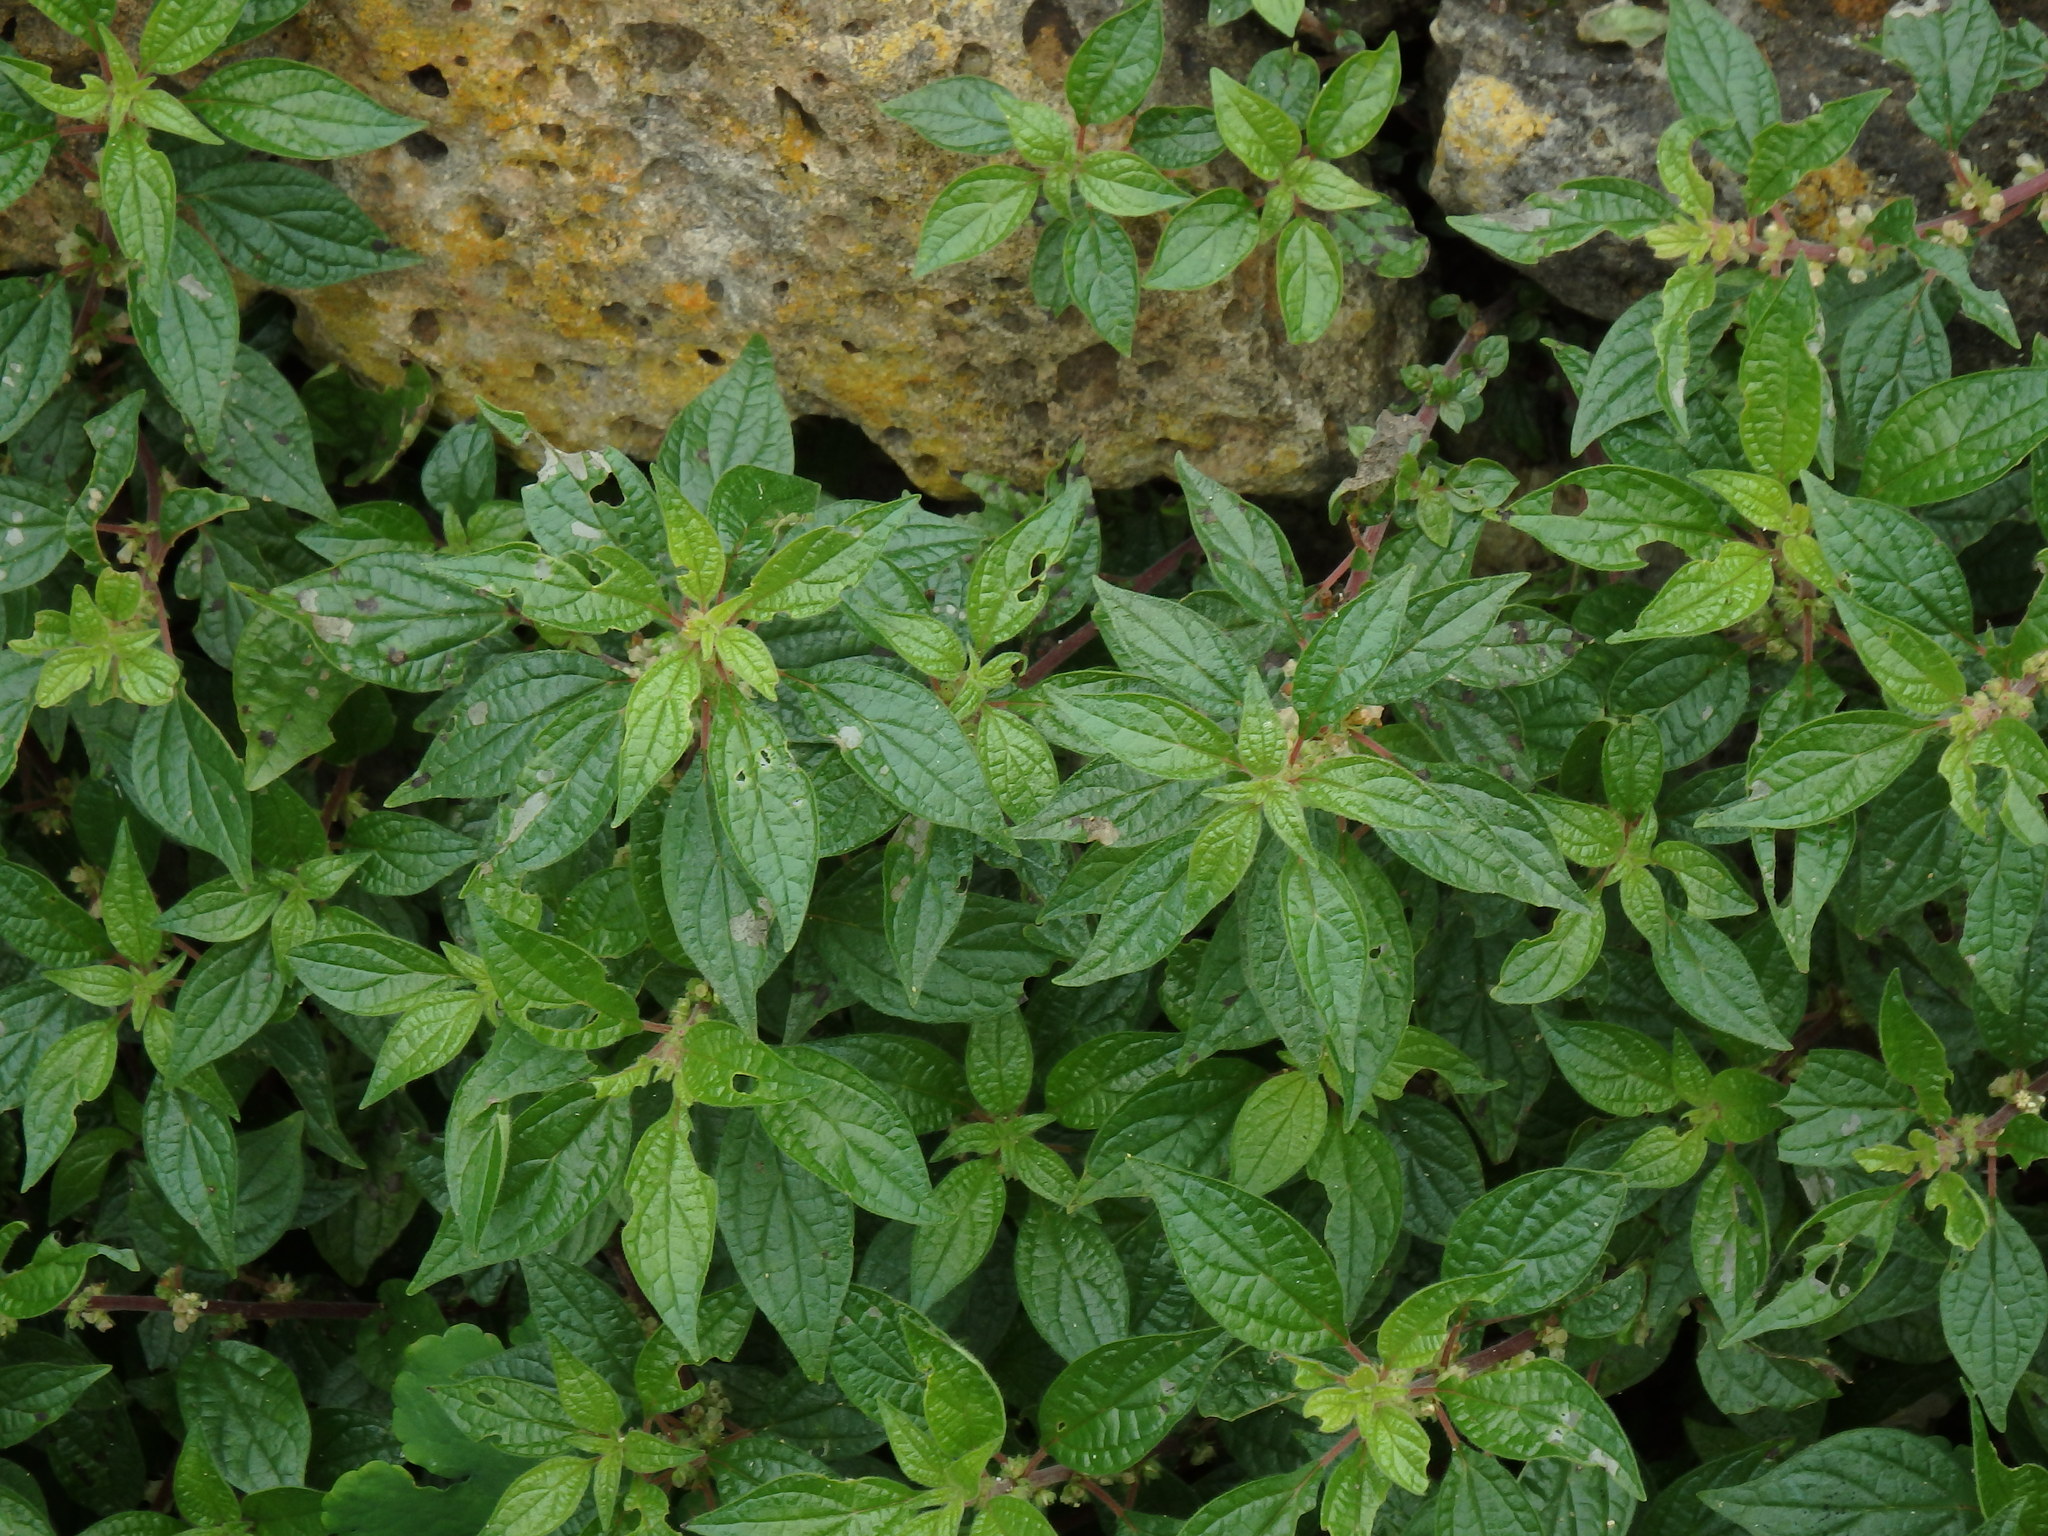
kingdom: Plantae
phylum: Tracheophyta
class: Magnoliopsida
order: Rosales
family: Urticaceae
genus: Parietaria
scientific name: Parietaria judaica
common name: Pellitory-of-the-wall
